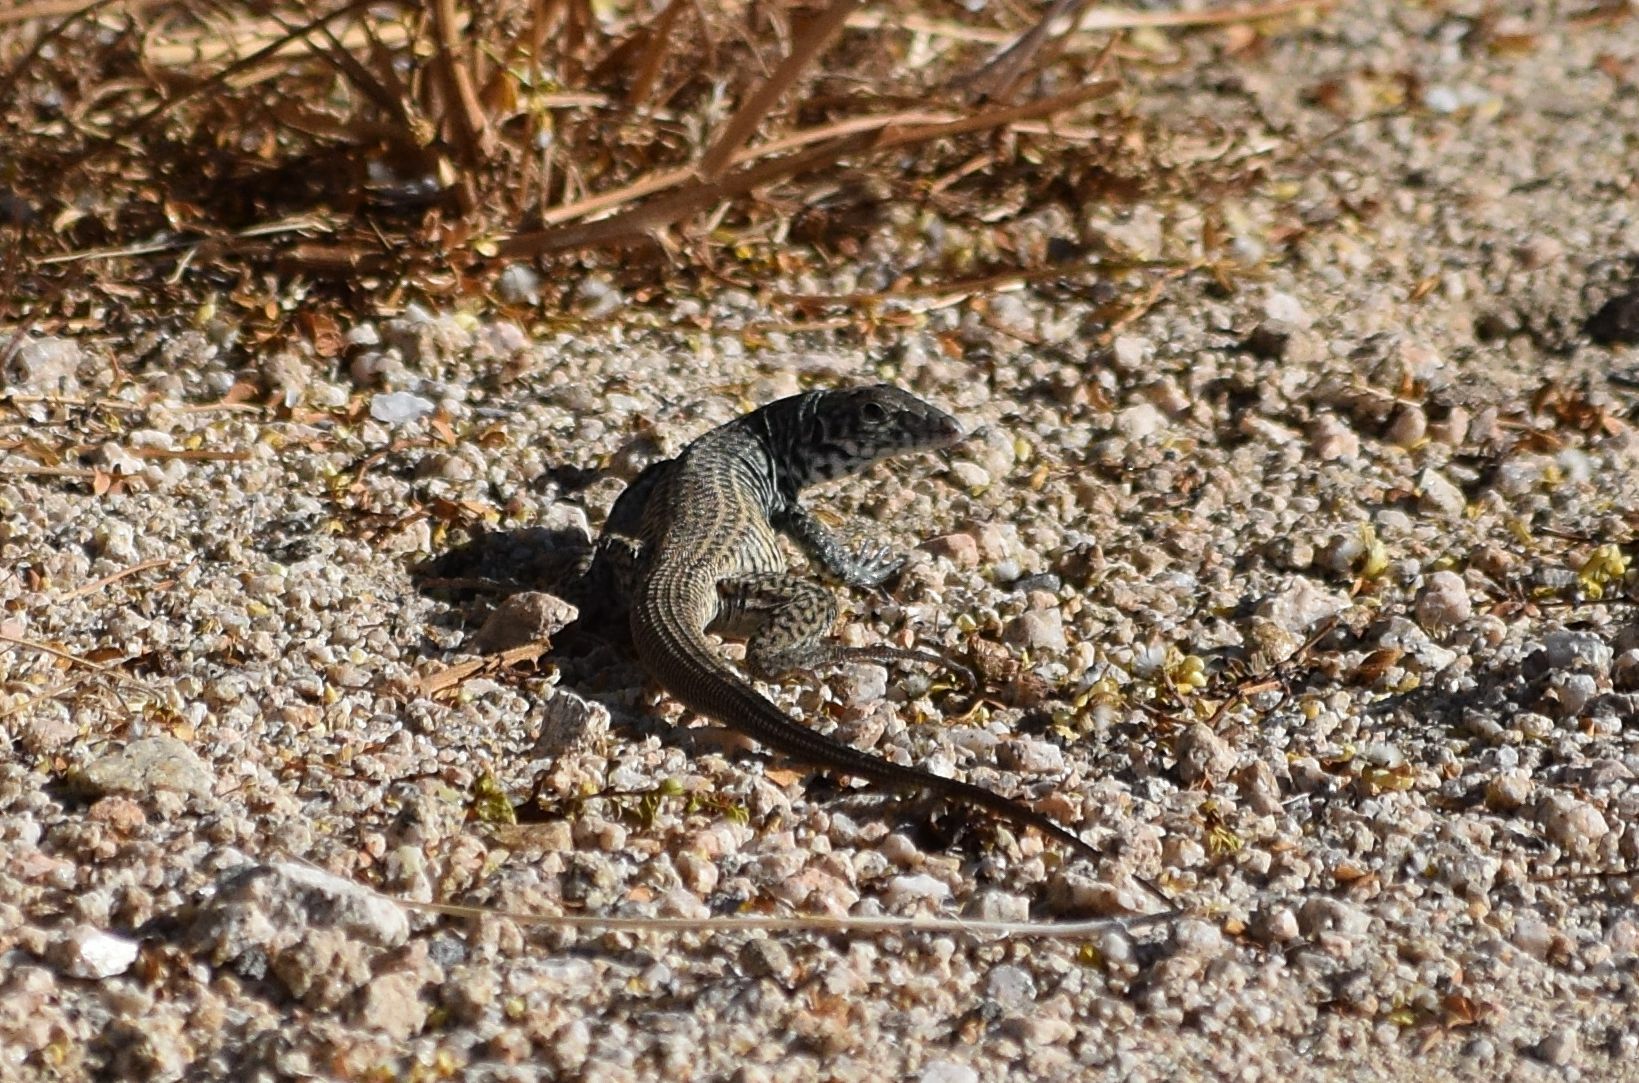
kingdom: Animalia
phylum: Chordata
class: Squamata
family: Teiidae
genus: Aspidoscelis
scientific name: Aspidoscelis tigris
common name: Tiger whiptail
